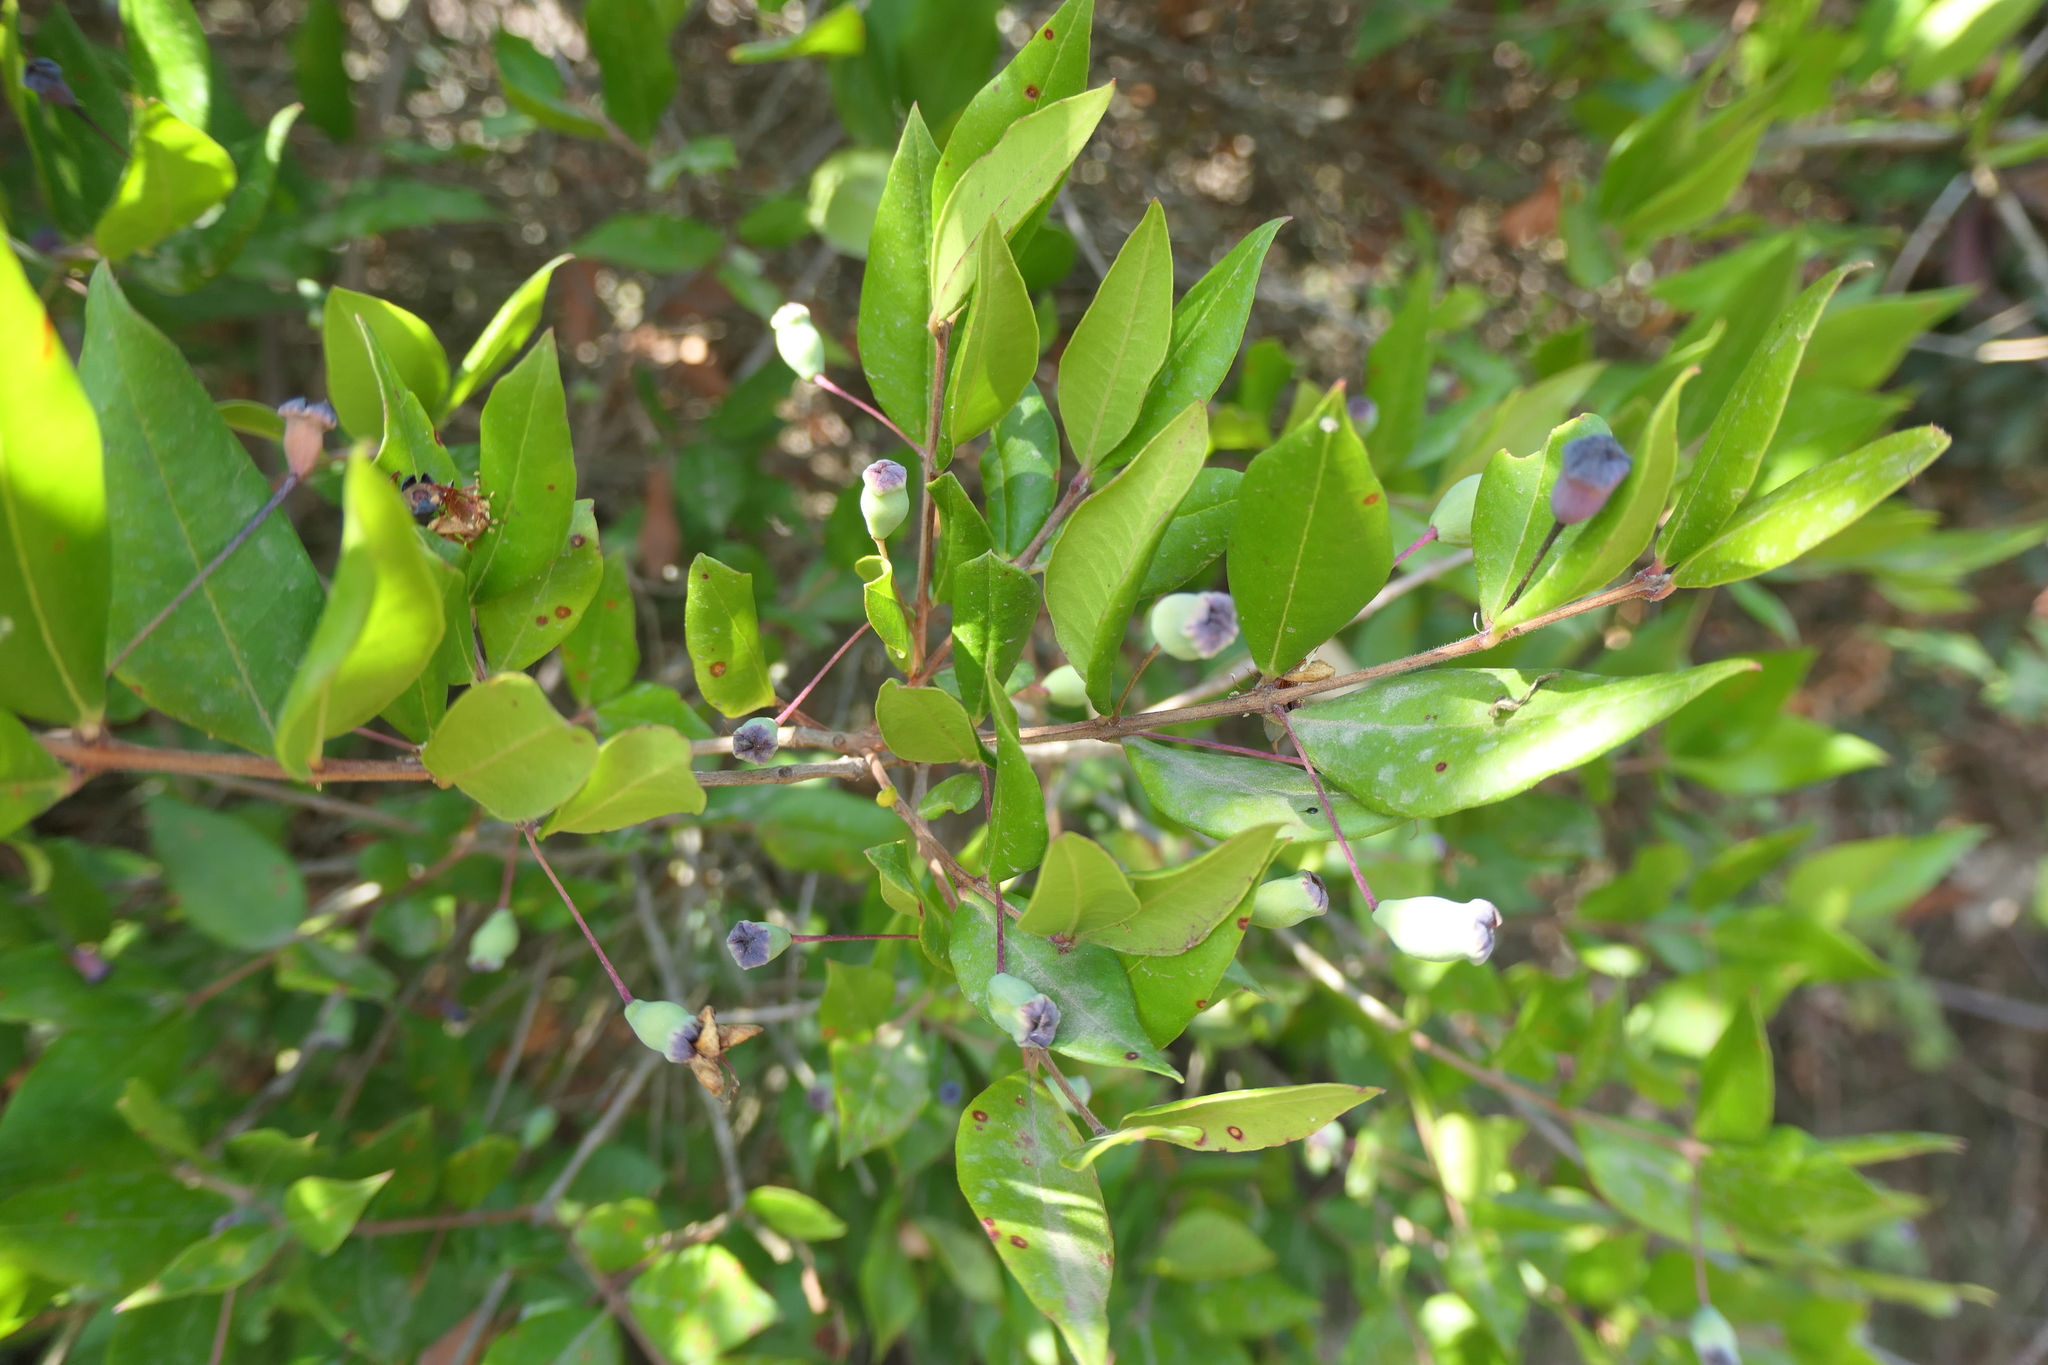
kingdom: Plantae
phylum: Tracheophyta
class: Magnoliopsida
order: Myrtales
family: Myrtaceae
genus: Myrtus
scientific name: Myrtus communis
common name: Myrtle
